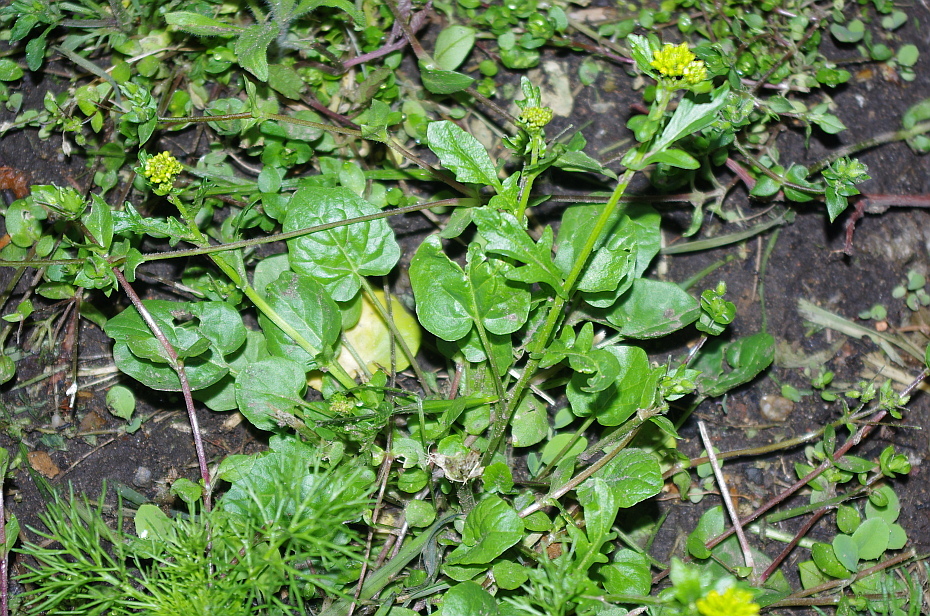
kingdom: Plantae
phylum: Tracheophyta
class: Magnoliopsida
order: Brassicales
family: Brassicaceae
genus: Barbarea
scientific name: Barbarea vulgaris
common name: Cressy-greens
